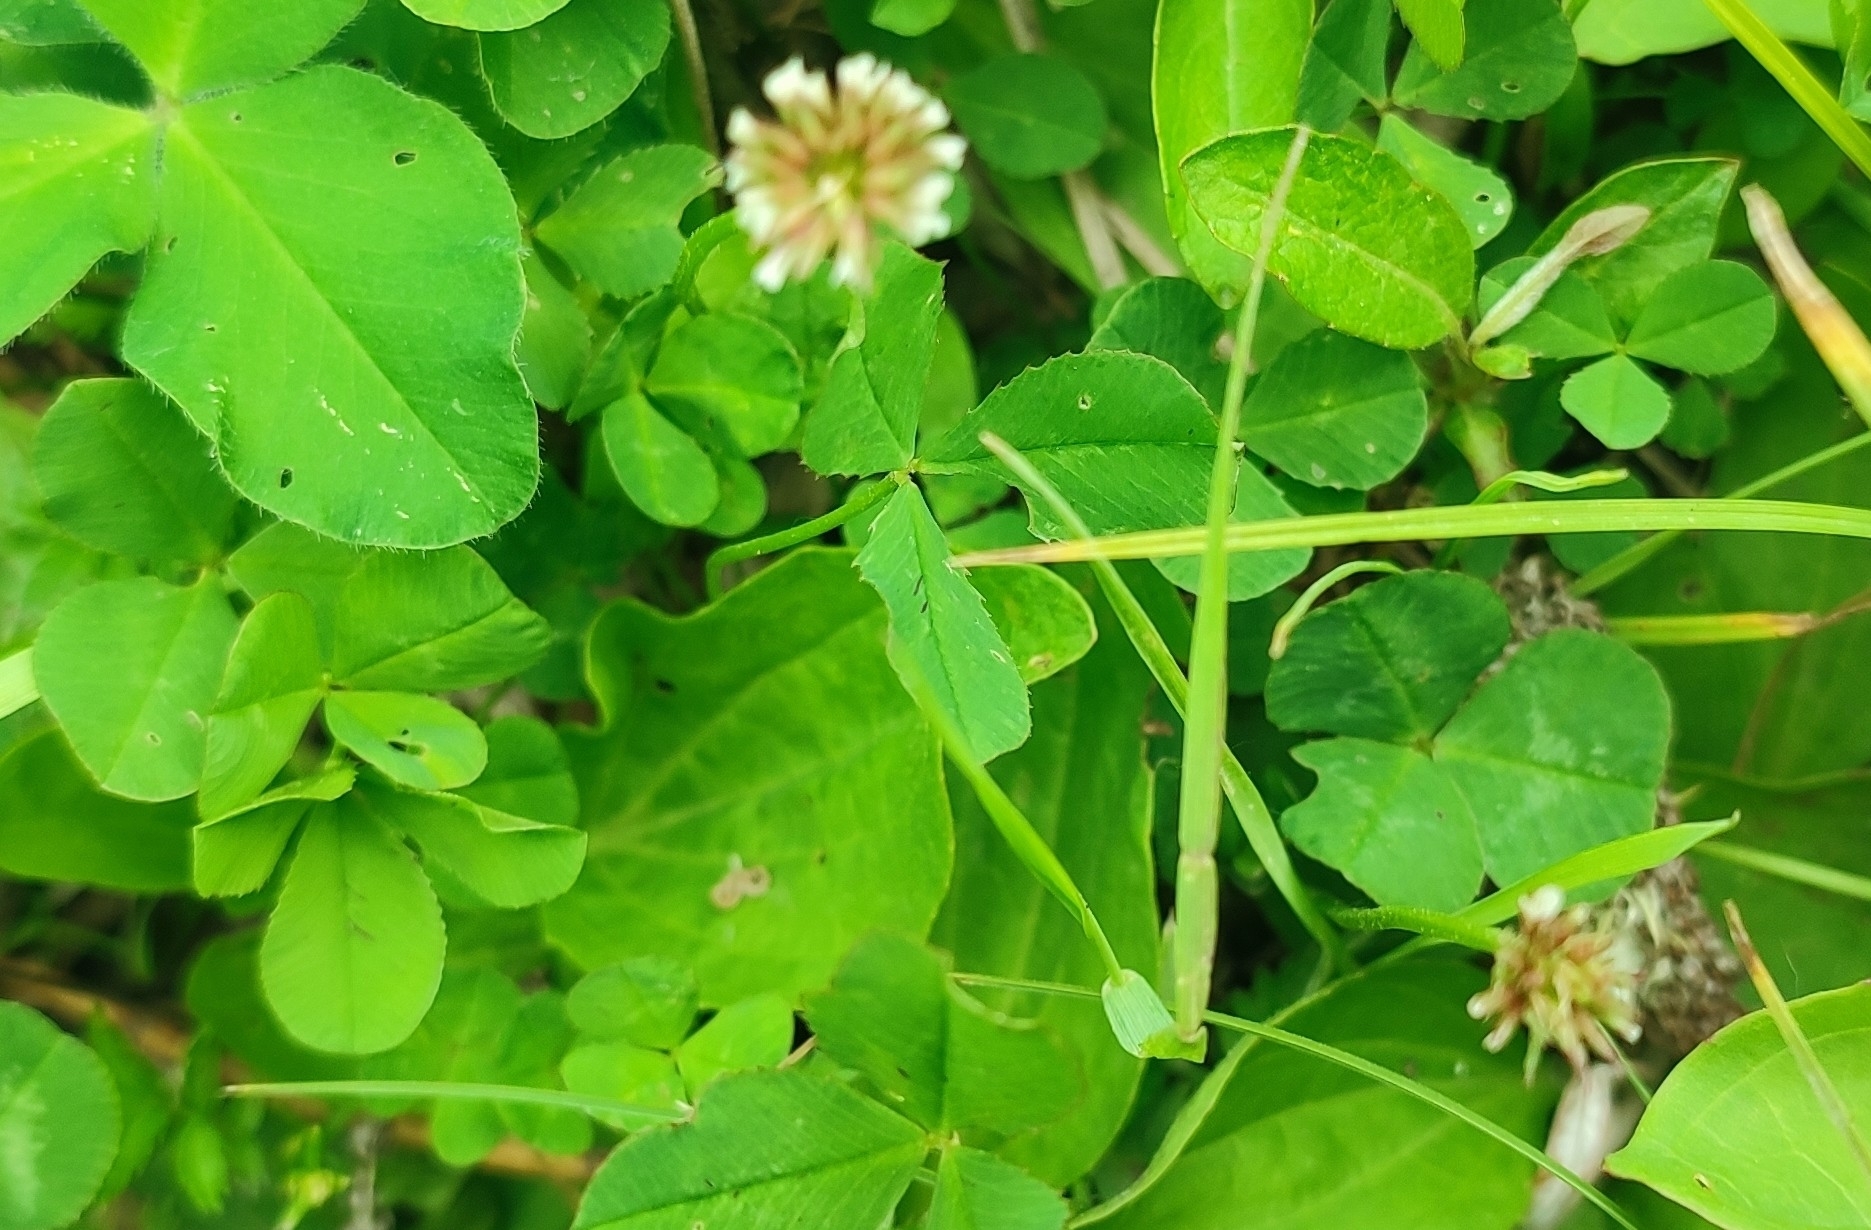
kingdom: Plantae
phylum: Tracheophyta
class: Magnoliopsida
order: Fabales
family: Fabaceae
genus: Trifolium
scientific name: Trifolium repens
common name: White clover
